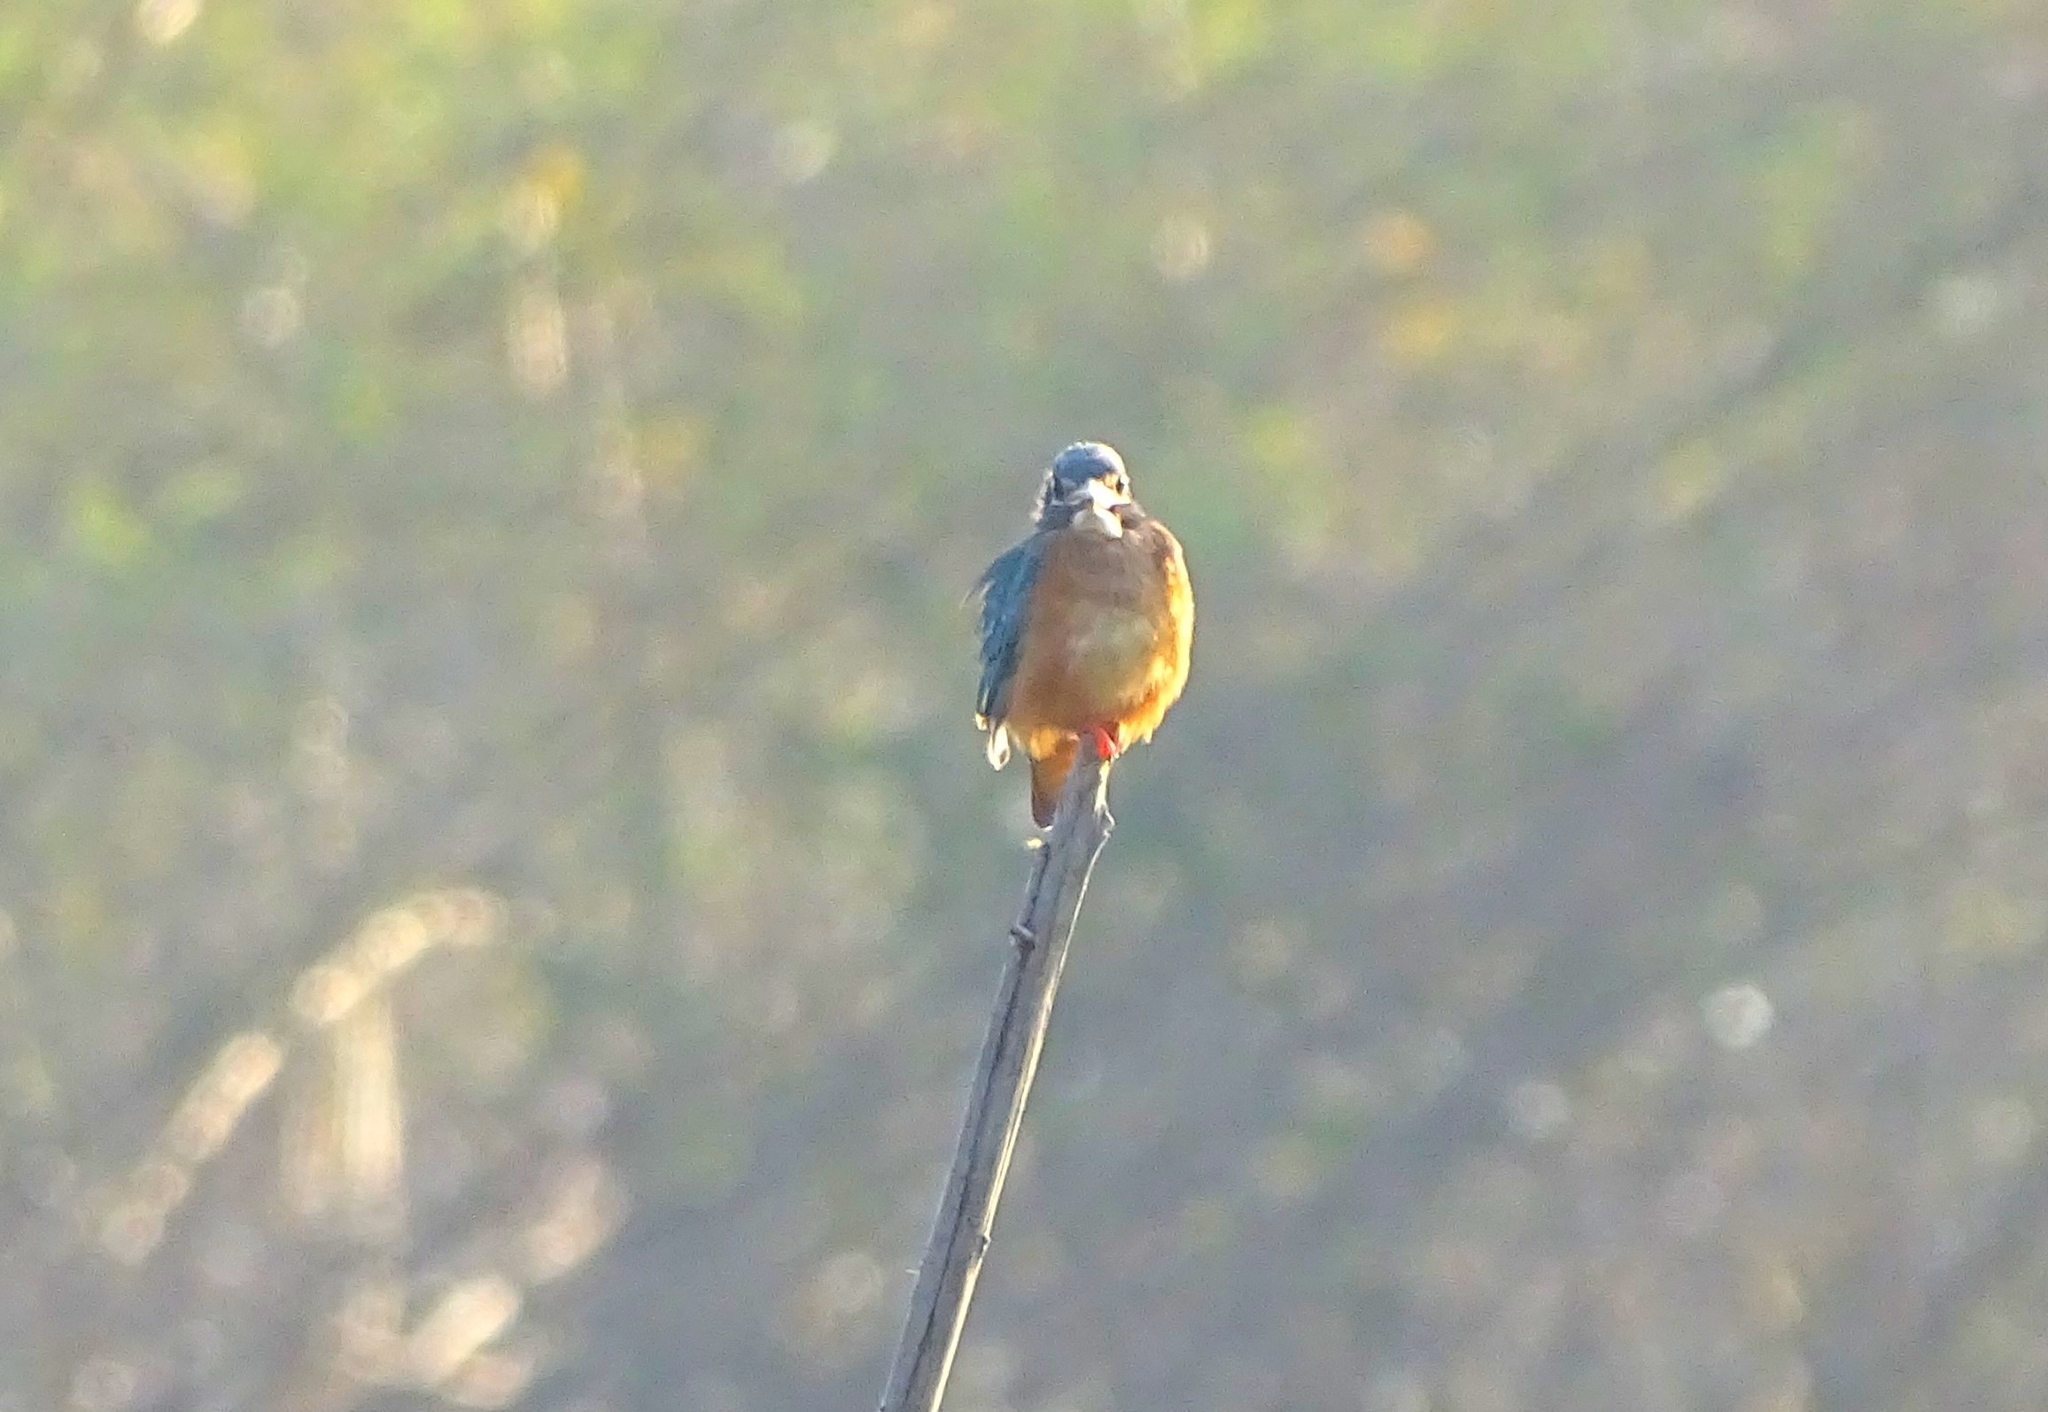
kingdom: Animalia
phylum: Chordata
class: Aves
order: Coraciiformes
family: Alcedinidae
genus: Alcedo
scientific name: Alcedo atthis
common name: Common kingfisher
